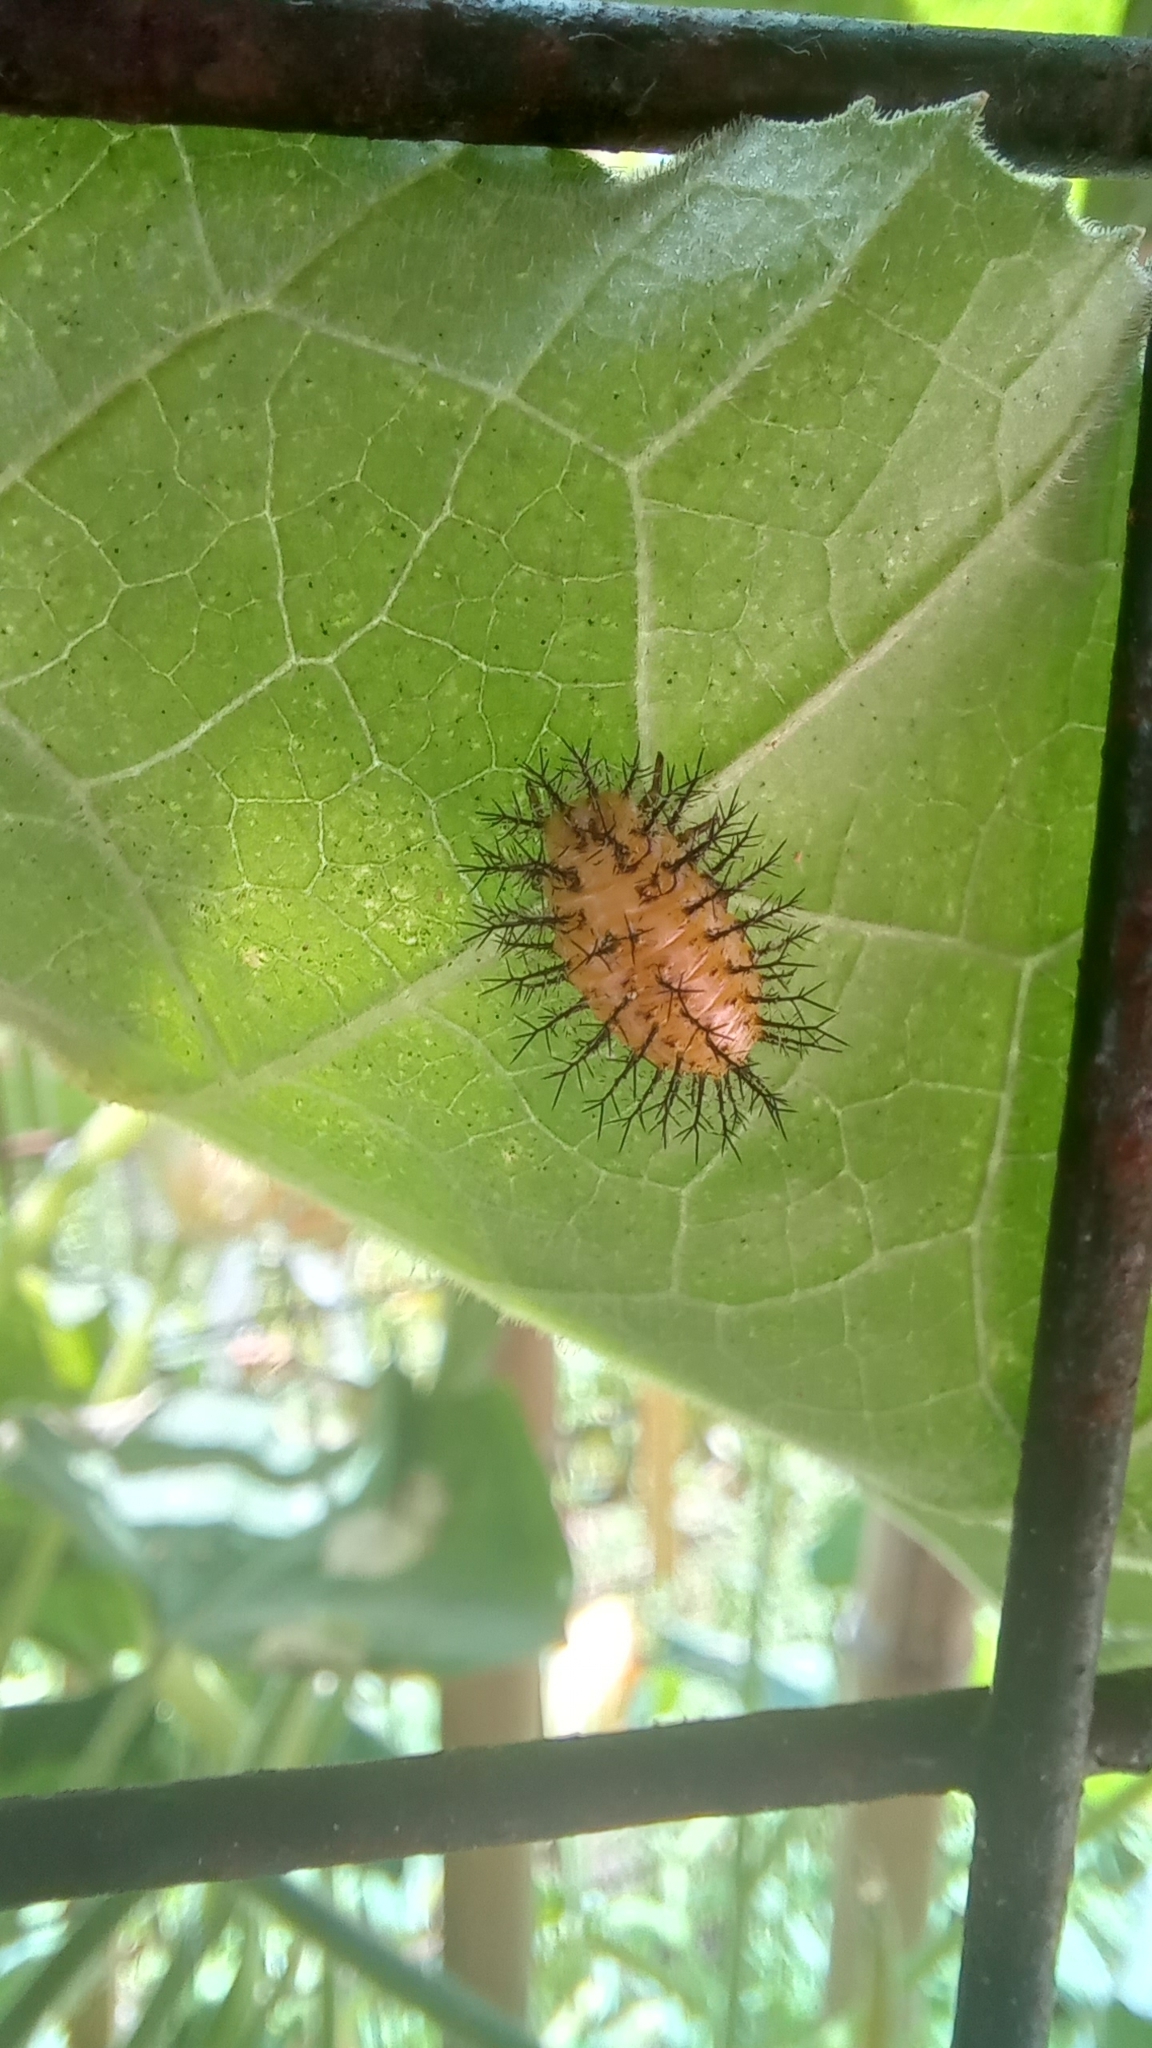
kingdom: Animalia
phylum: Arthropoda
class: Insecta
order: Coleoptera
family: Coccinellidae
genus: Epilachna
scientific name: Epilachna
